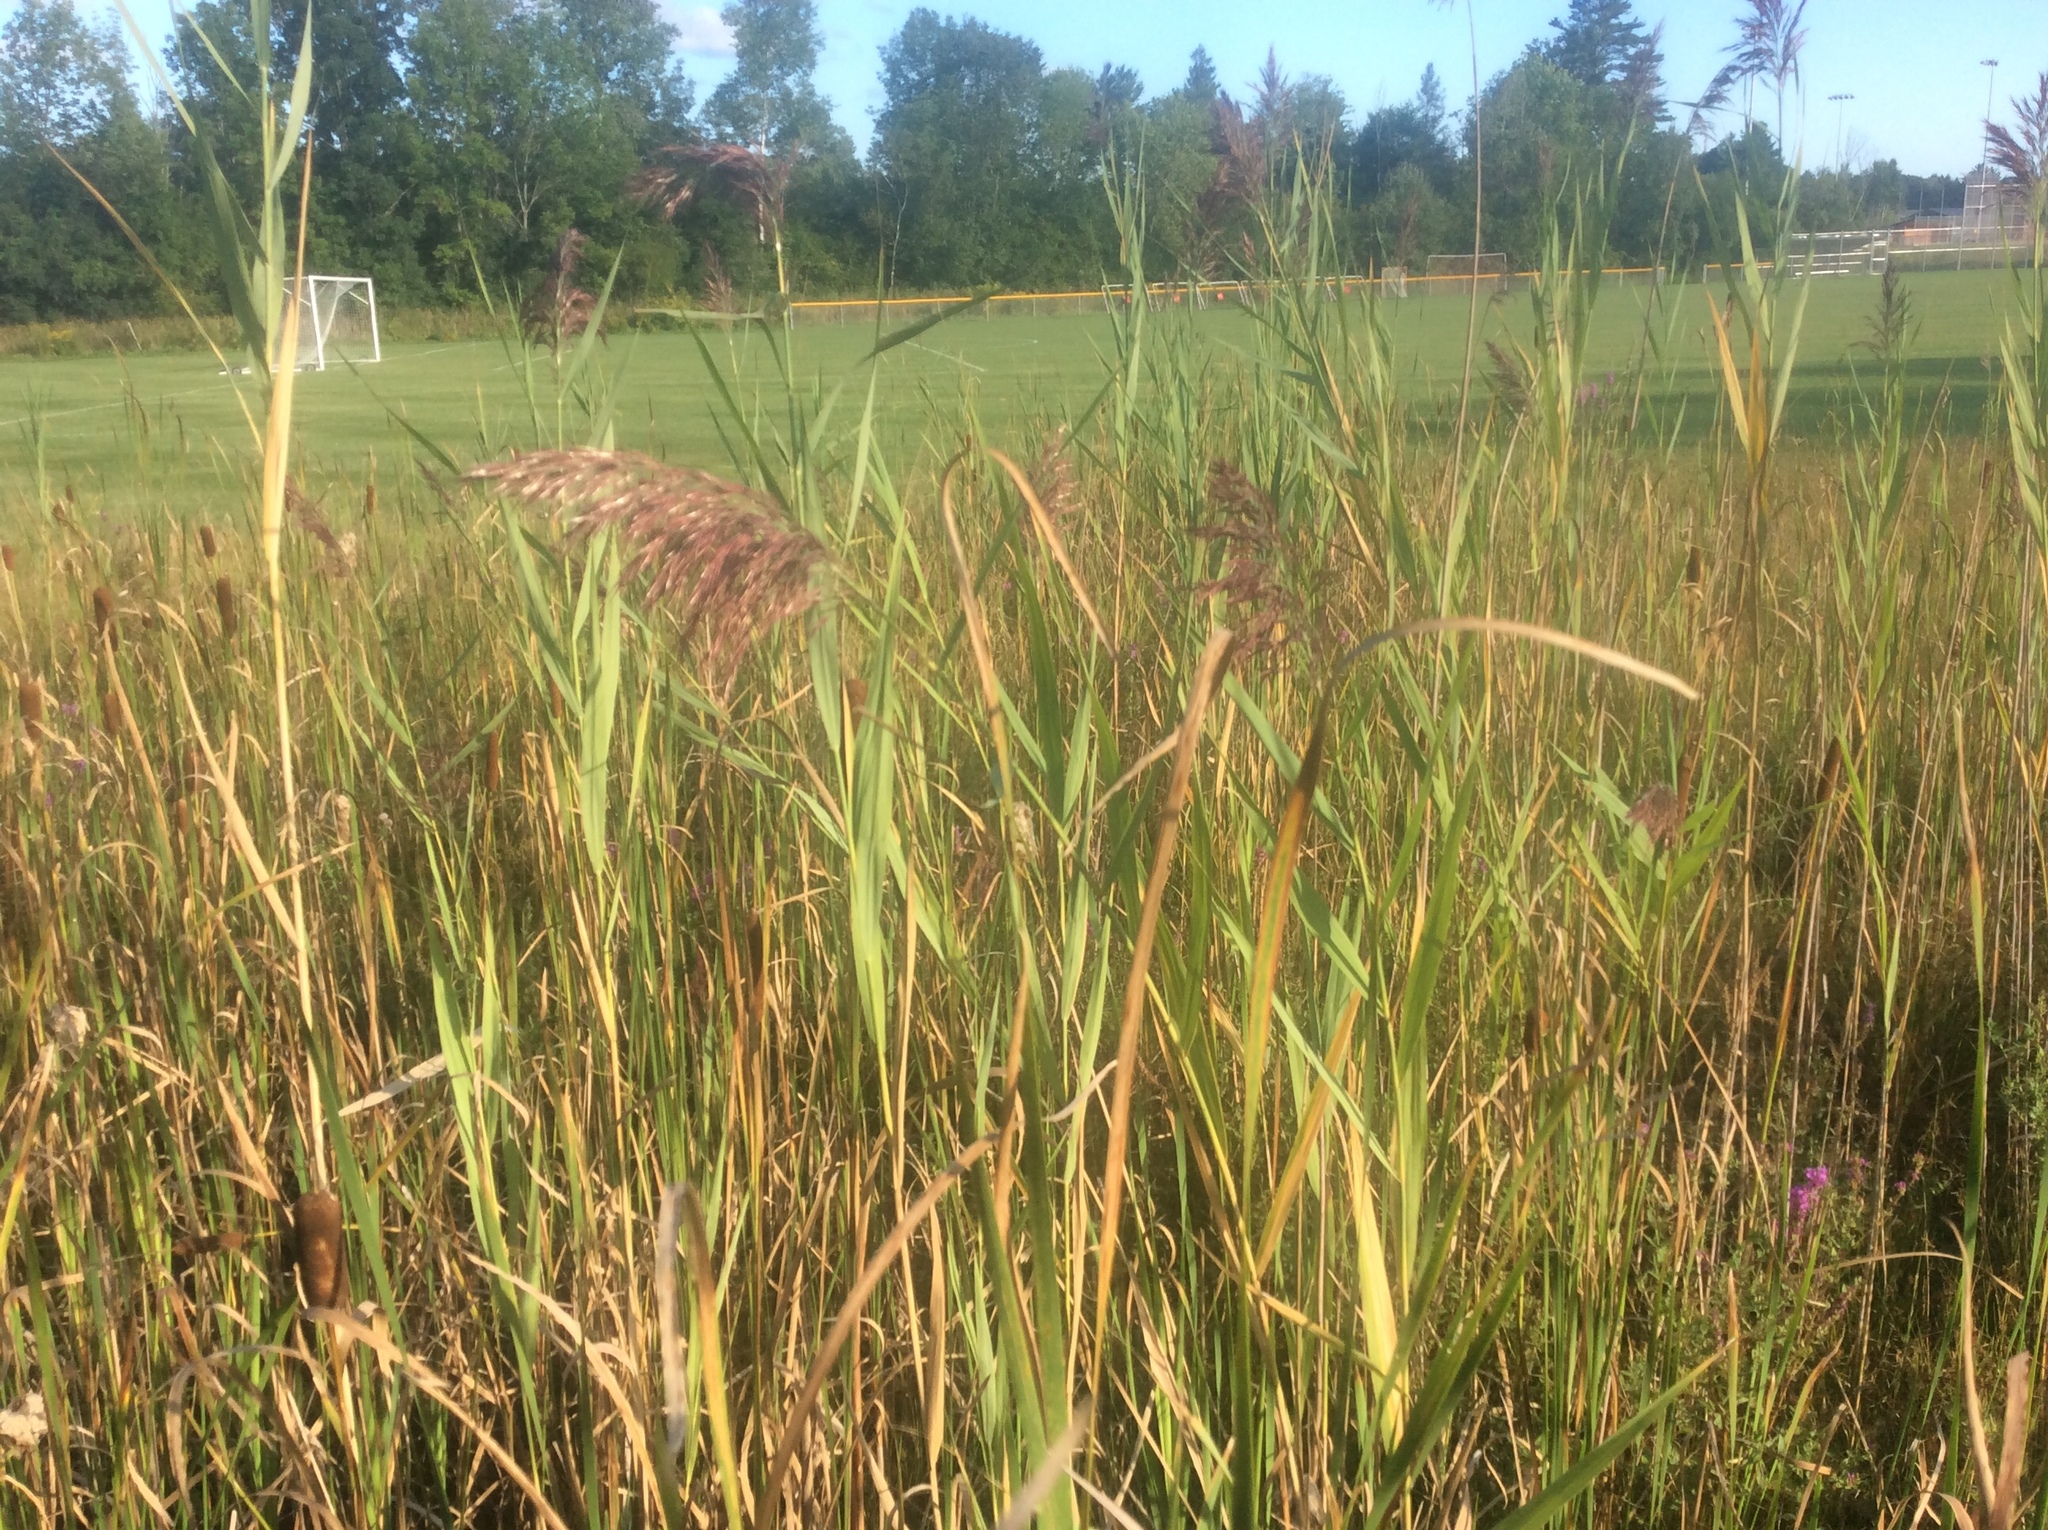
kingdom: Plantae
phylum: Tracheophyta
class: Liliopsida
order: Poales
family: Poaceae
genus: Phragmites
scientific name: Phragmites australis
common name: Common reed
